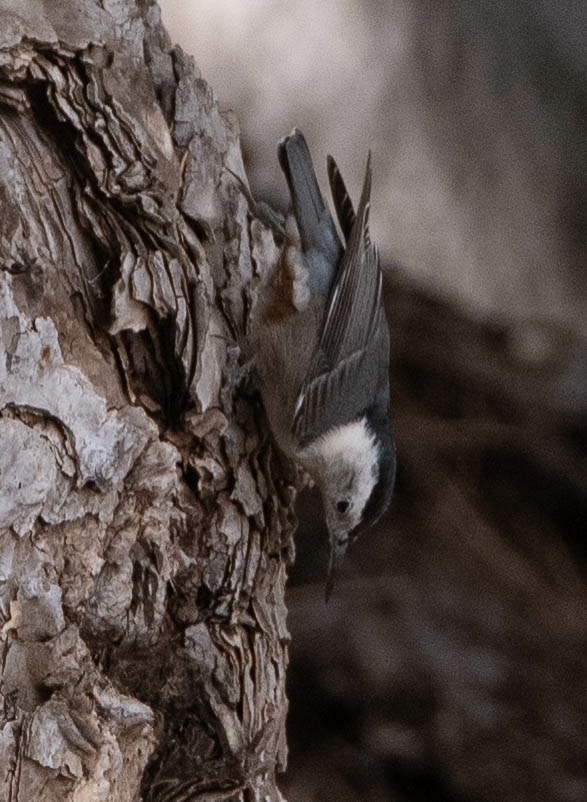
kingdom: Animalia
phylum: Chordata
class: Aves
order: Passeriformes
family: Sittidae
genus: Sitta
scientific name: Sitta carolinensis
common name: White-breasted nuthatch
